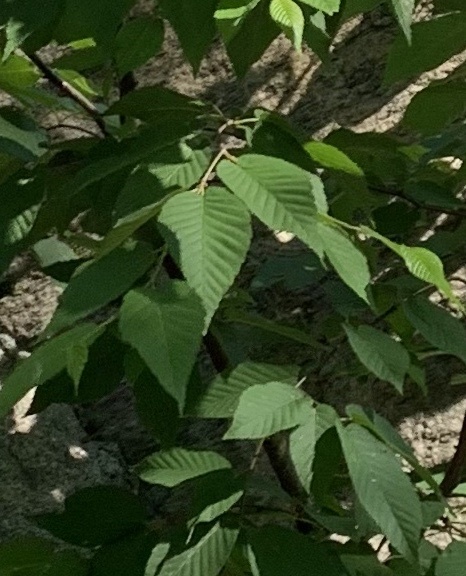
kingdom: Plantae
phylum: Tracheophyta
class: Magnoliopsida
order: Fagales
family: Fagaceae
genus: Fagus
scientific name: Fagus grandifolia
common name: American beech
